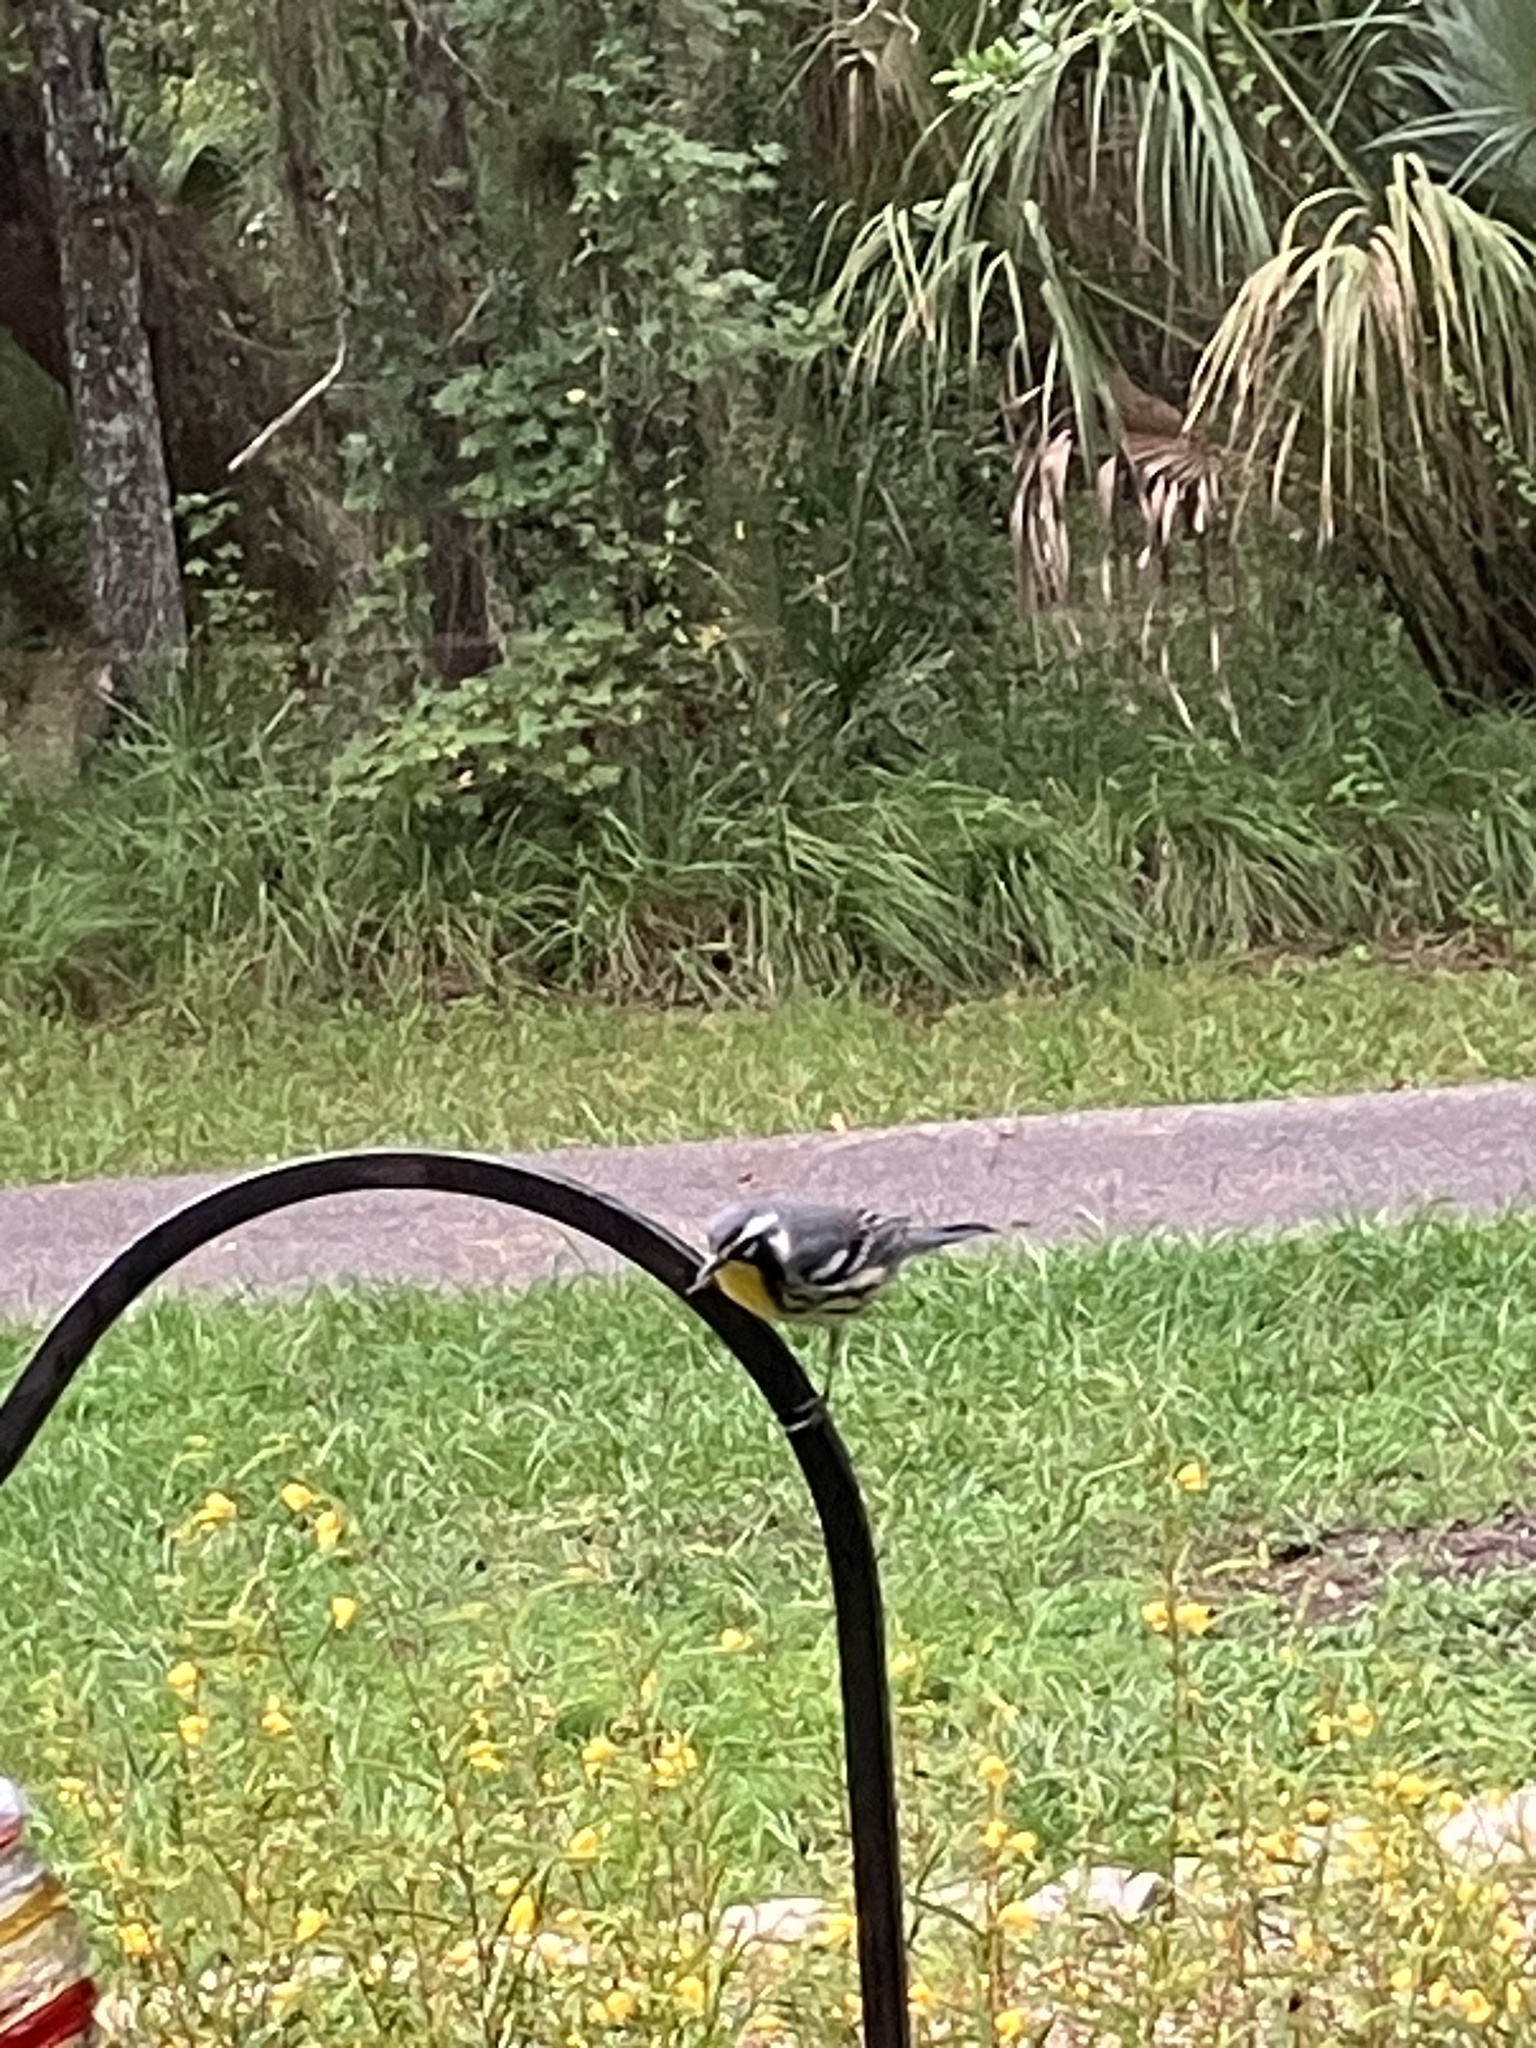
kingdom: Animalia
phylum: Chordata
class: Aves
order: Passeriformes
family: Parulidae
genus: Setophaga
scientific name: Setophaga dominica
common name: Yellow-throated warbler
